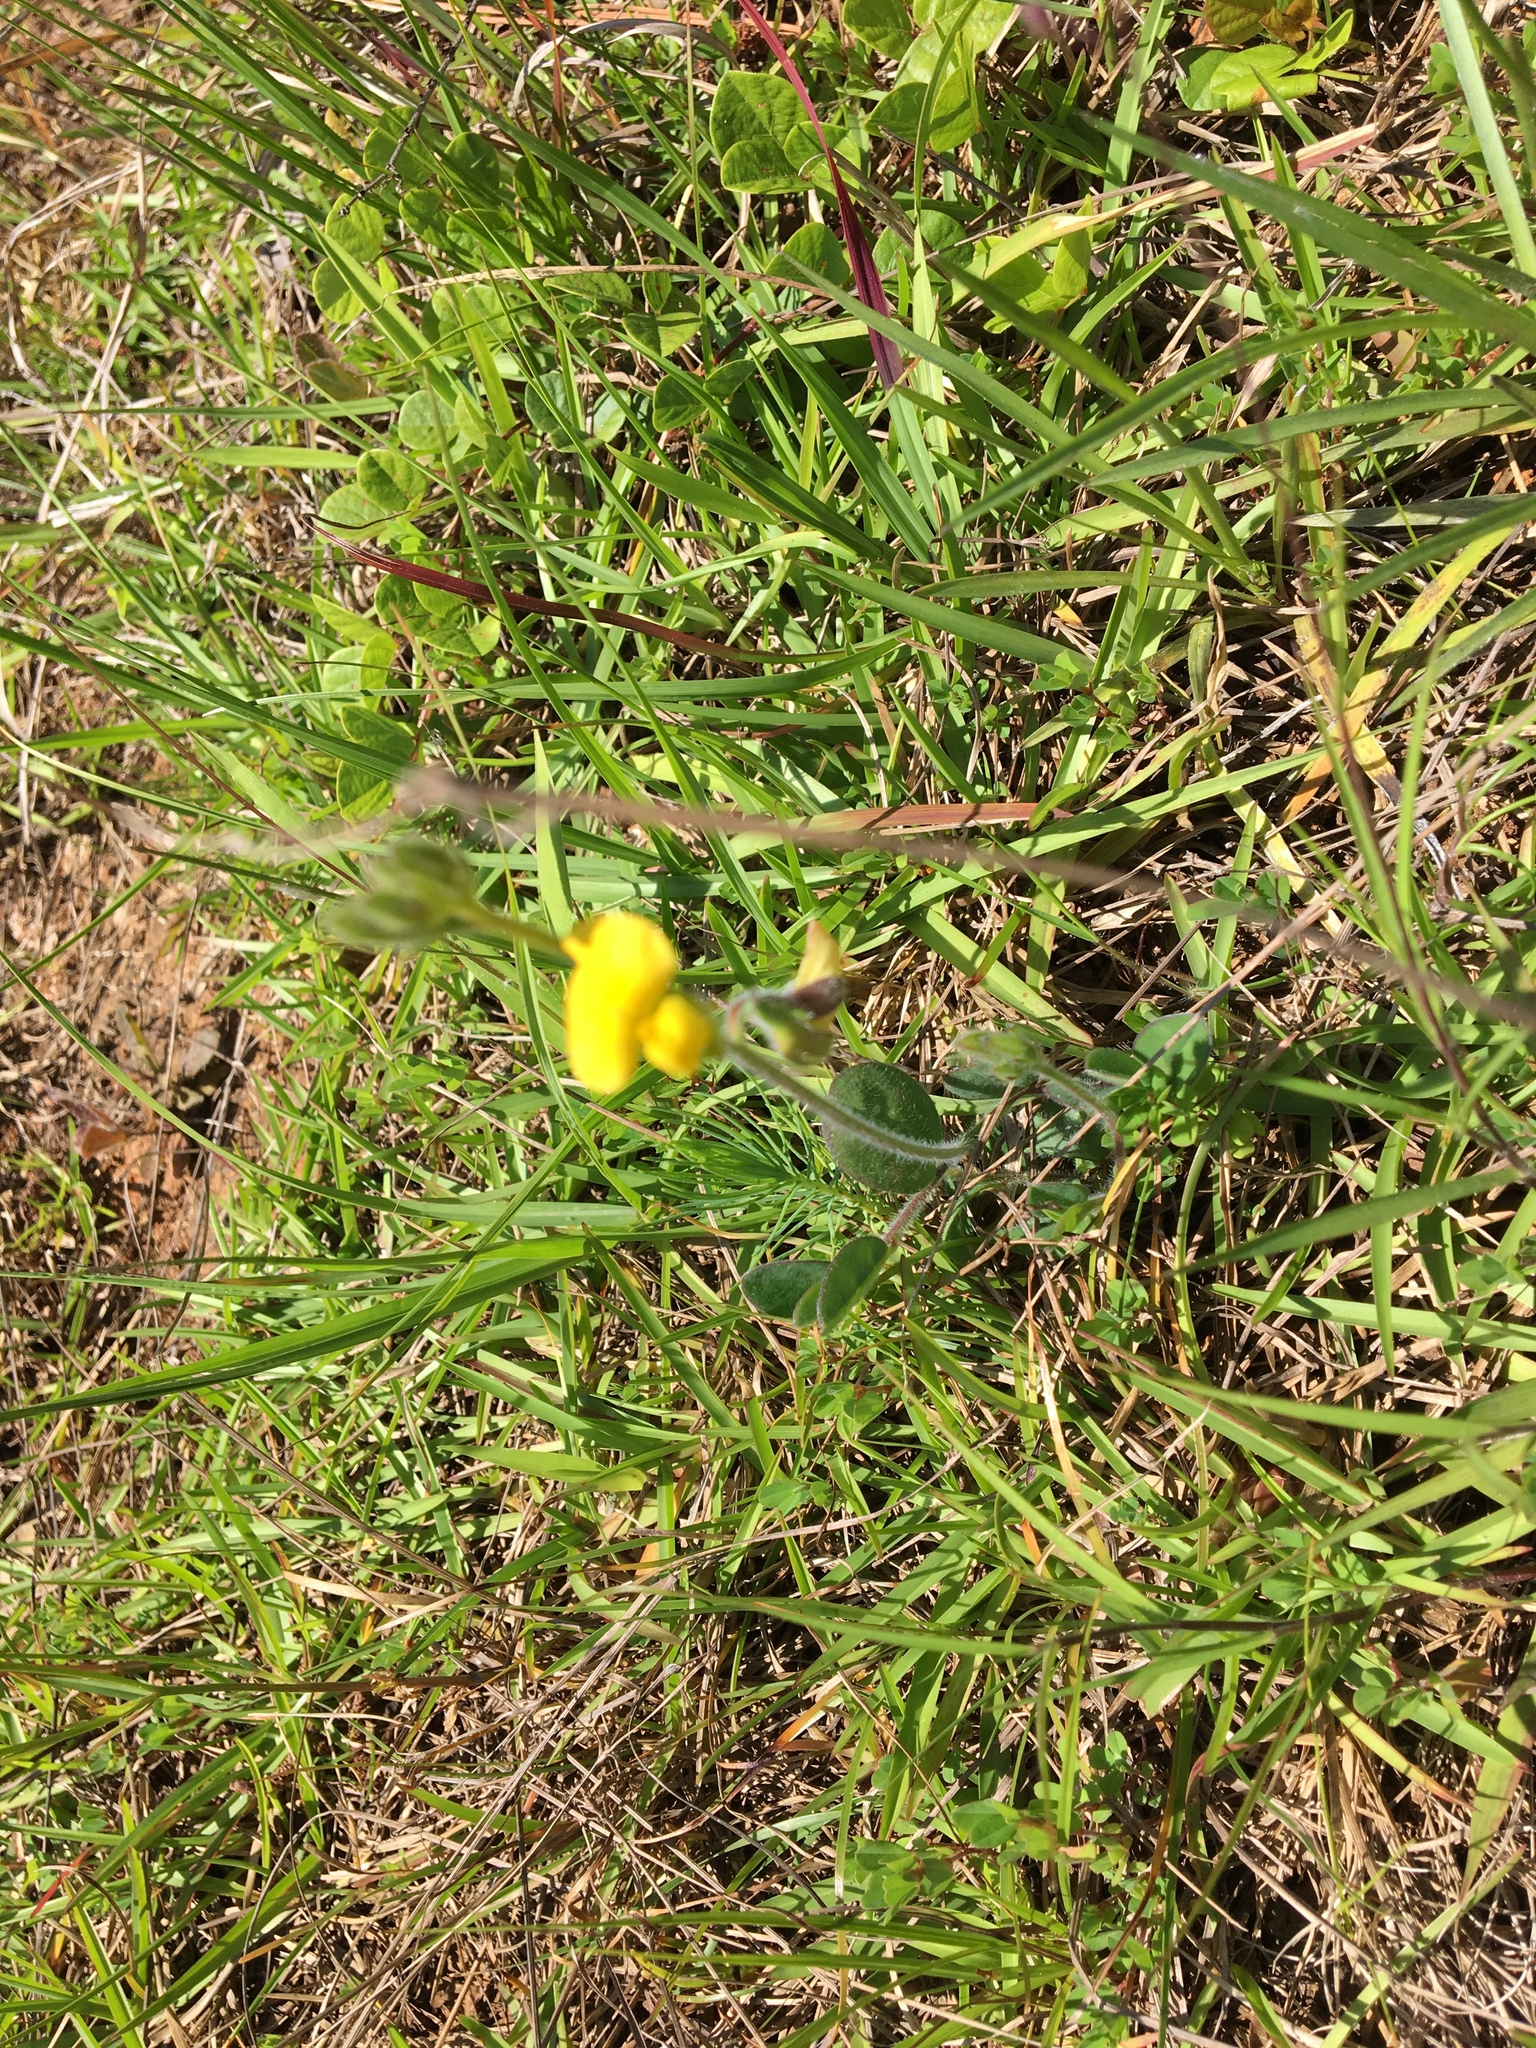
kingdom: Plantae
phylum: Tracheophyta
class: Magnoliopsida
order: Fabales
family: Fabaceae
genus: Crotalaria
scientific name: Crotalaria rotundifolia
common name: Prostrate rattlebox
